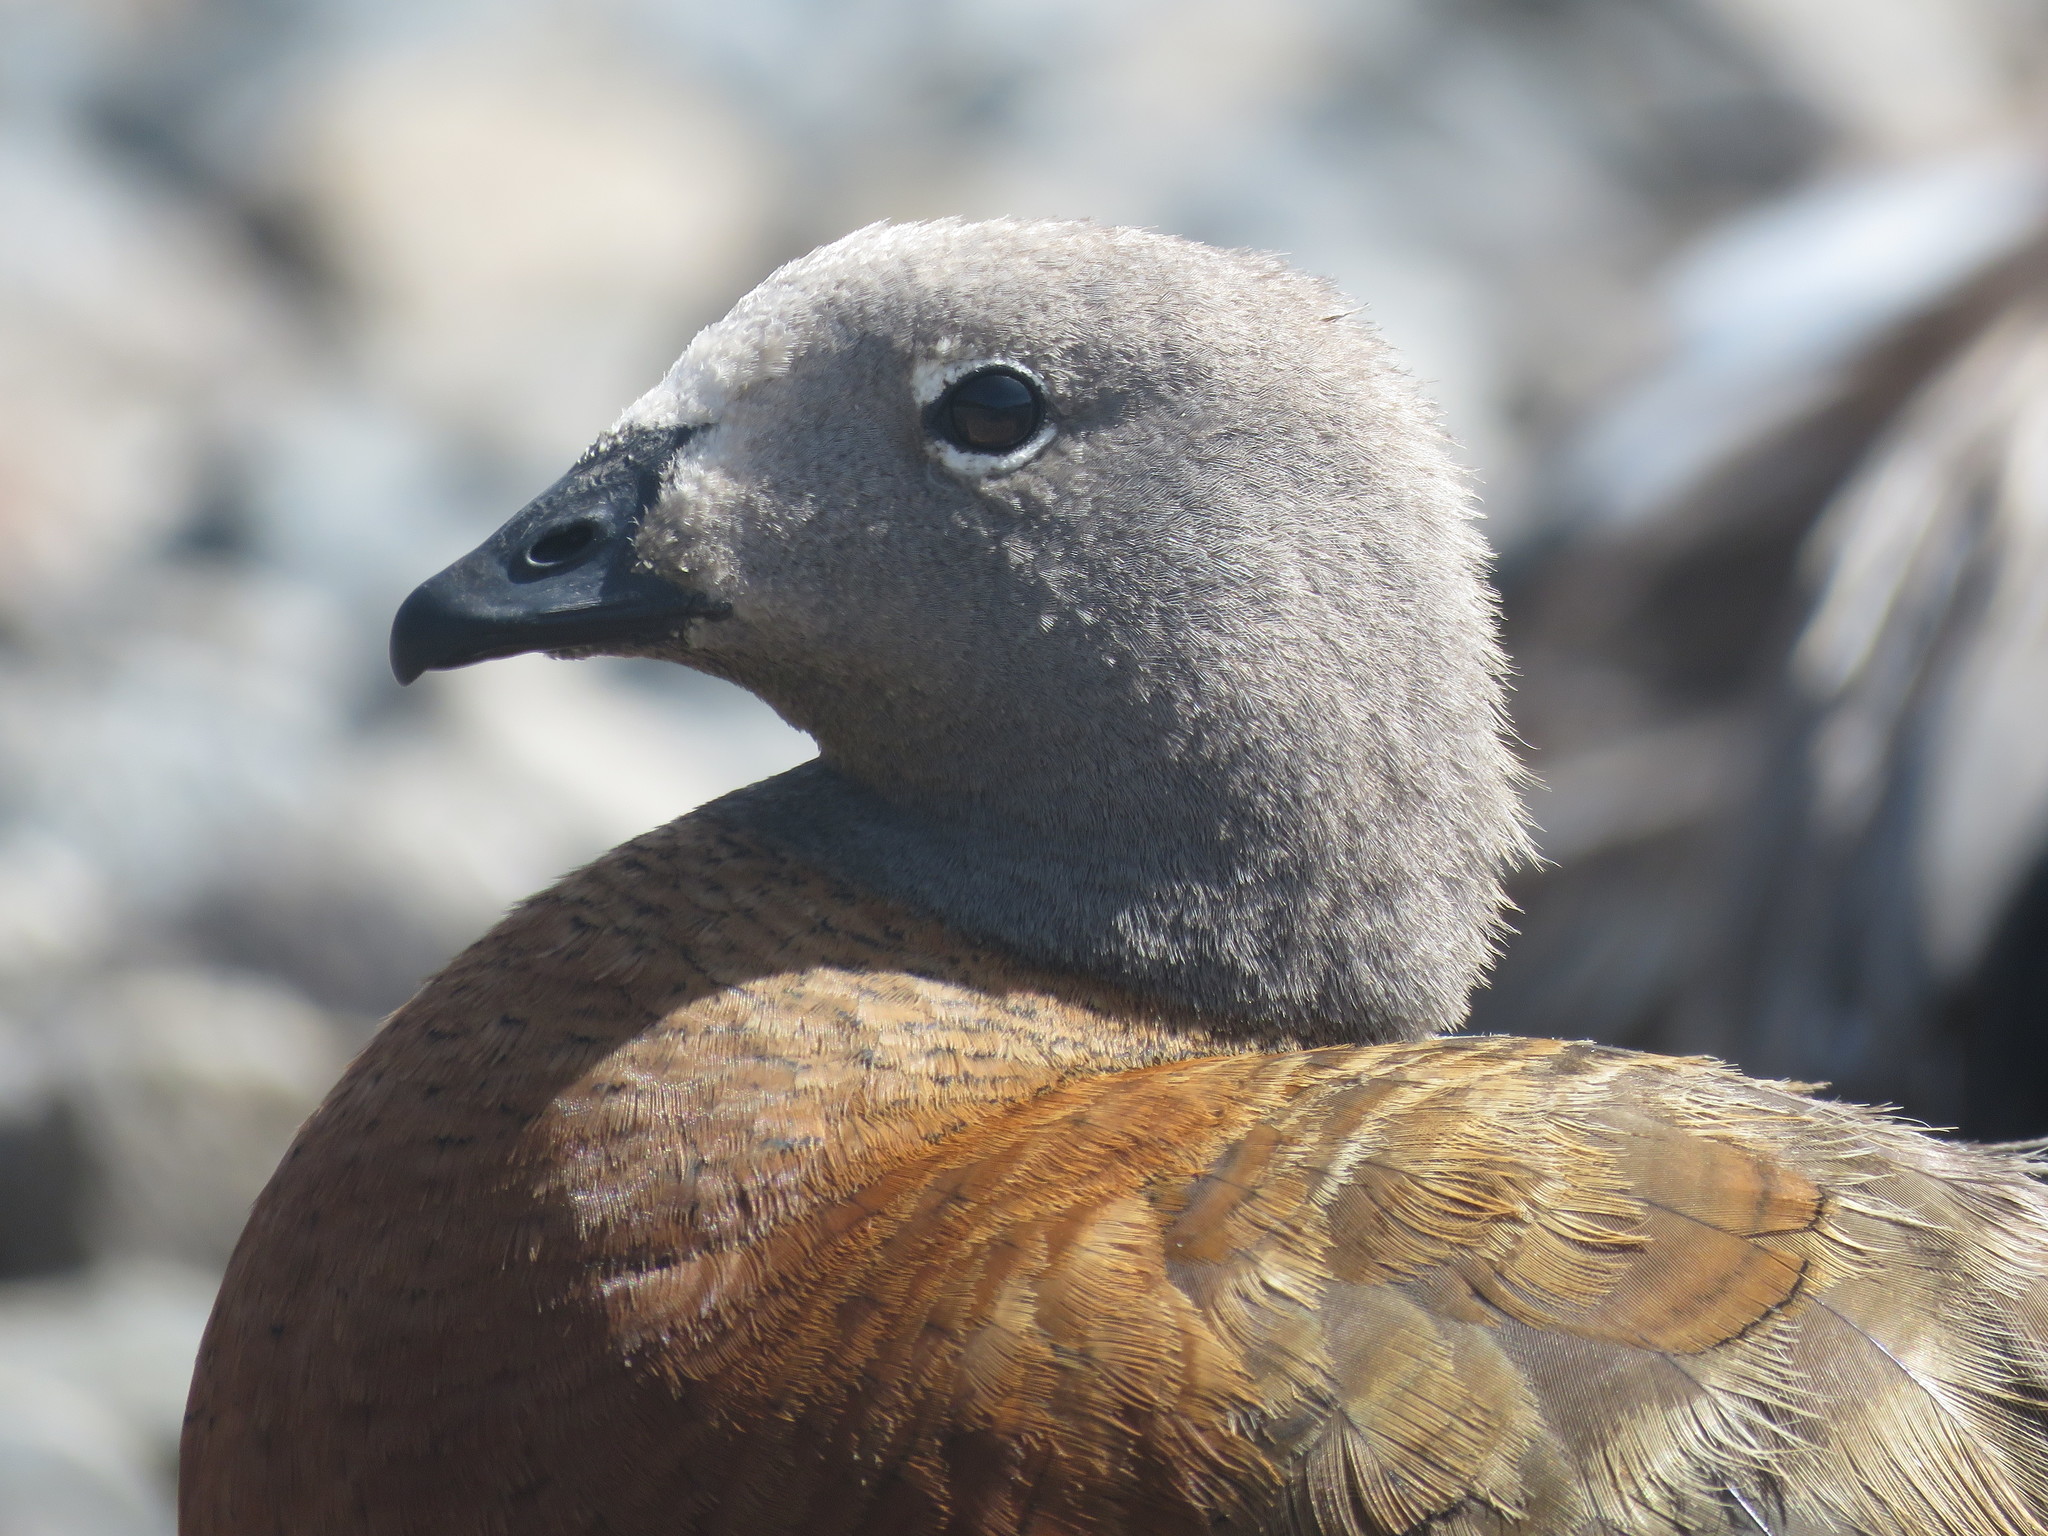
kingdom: Animalia
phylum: Chordata
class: Aves
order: Anseriformes
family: Anatidae
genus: Chloephaga
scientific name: Chloephaga poliocephala
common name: Ashy-headed goose
